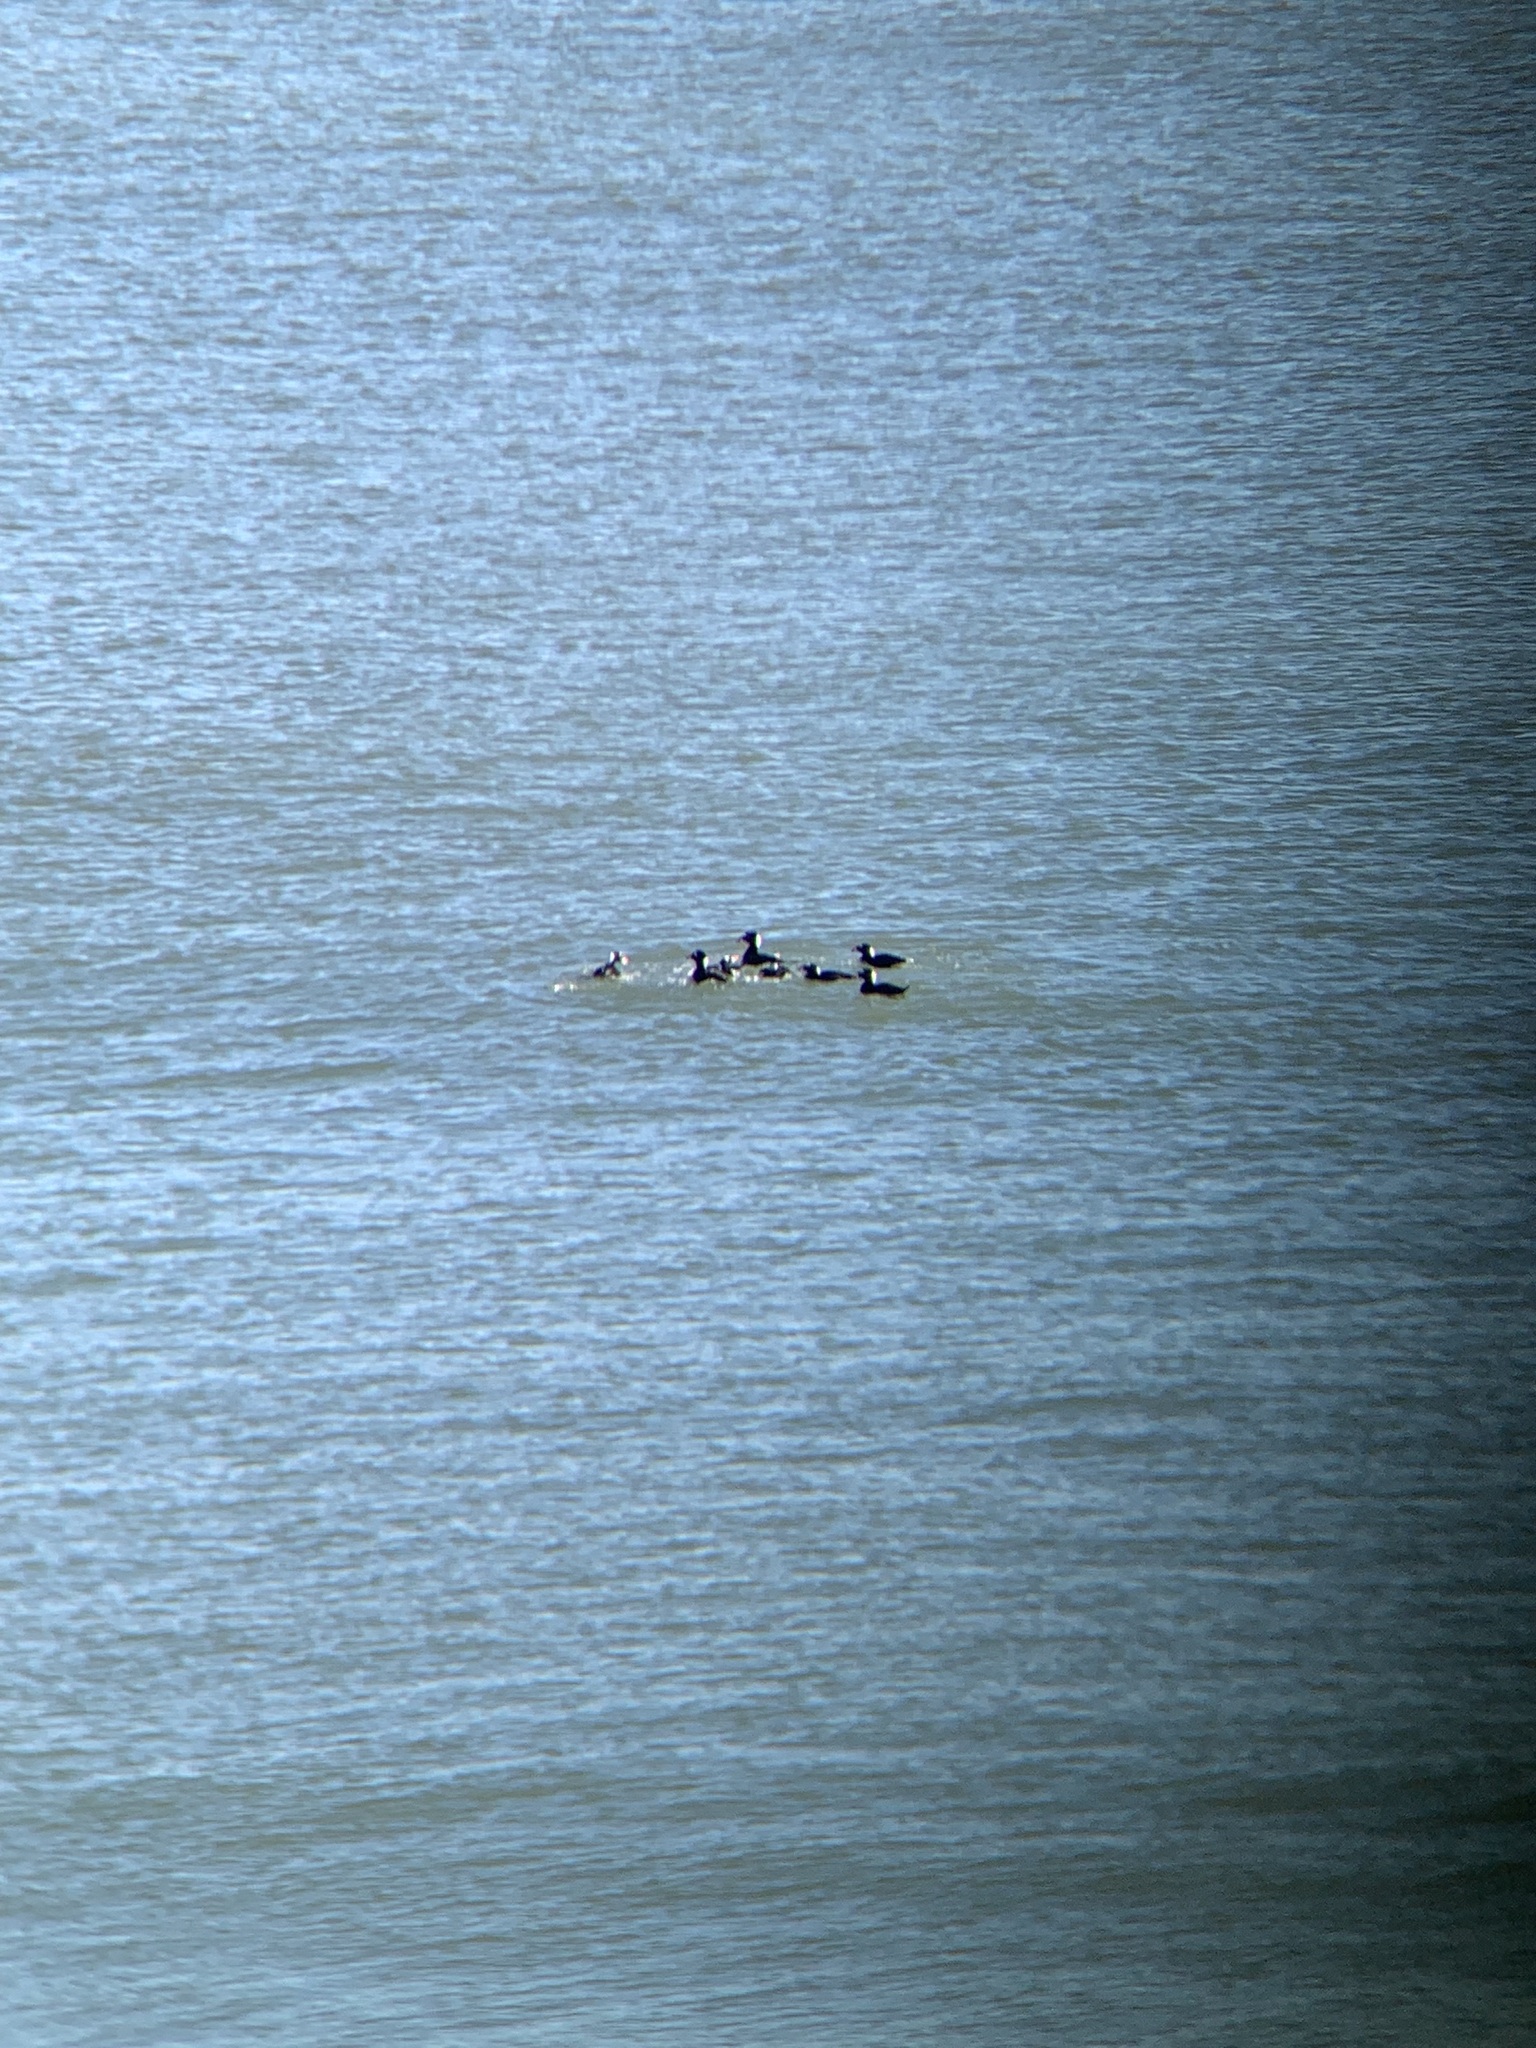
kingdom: Animalia
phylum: Chordata
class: Aves
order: Anseriformes
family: Anatidae
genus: Melanitta
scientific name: Melanitta perspicillata
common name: Surf scoter
